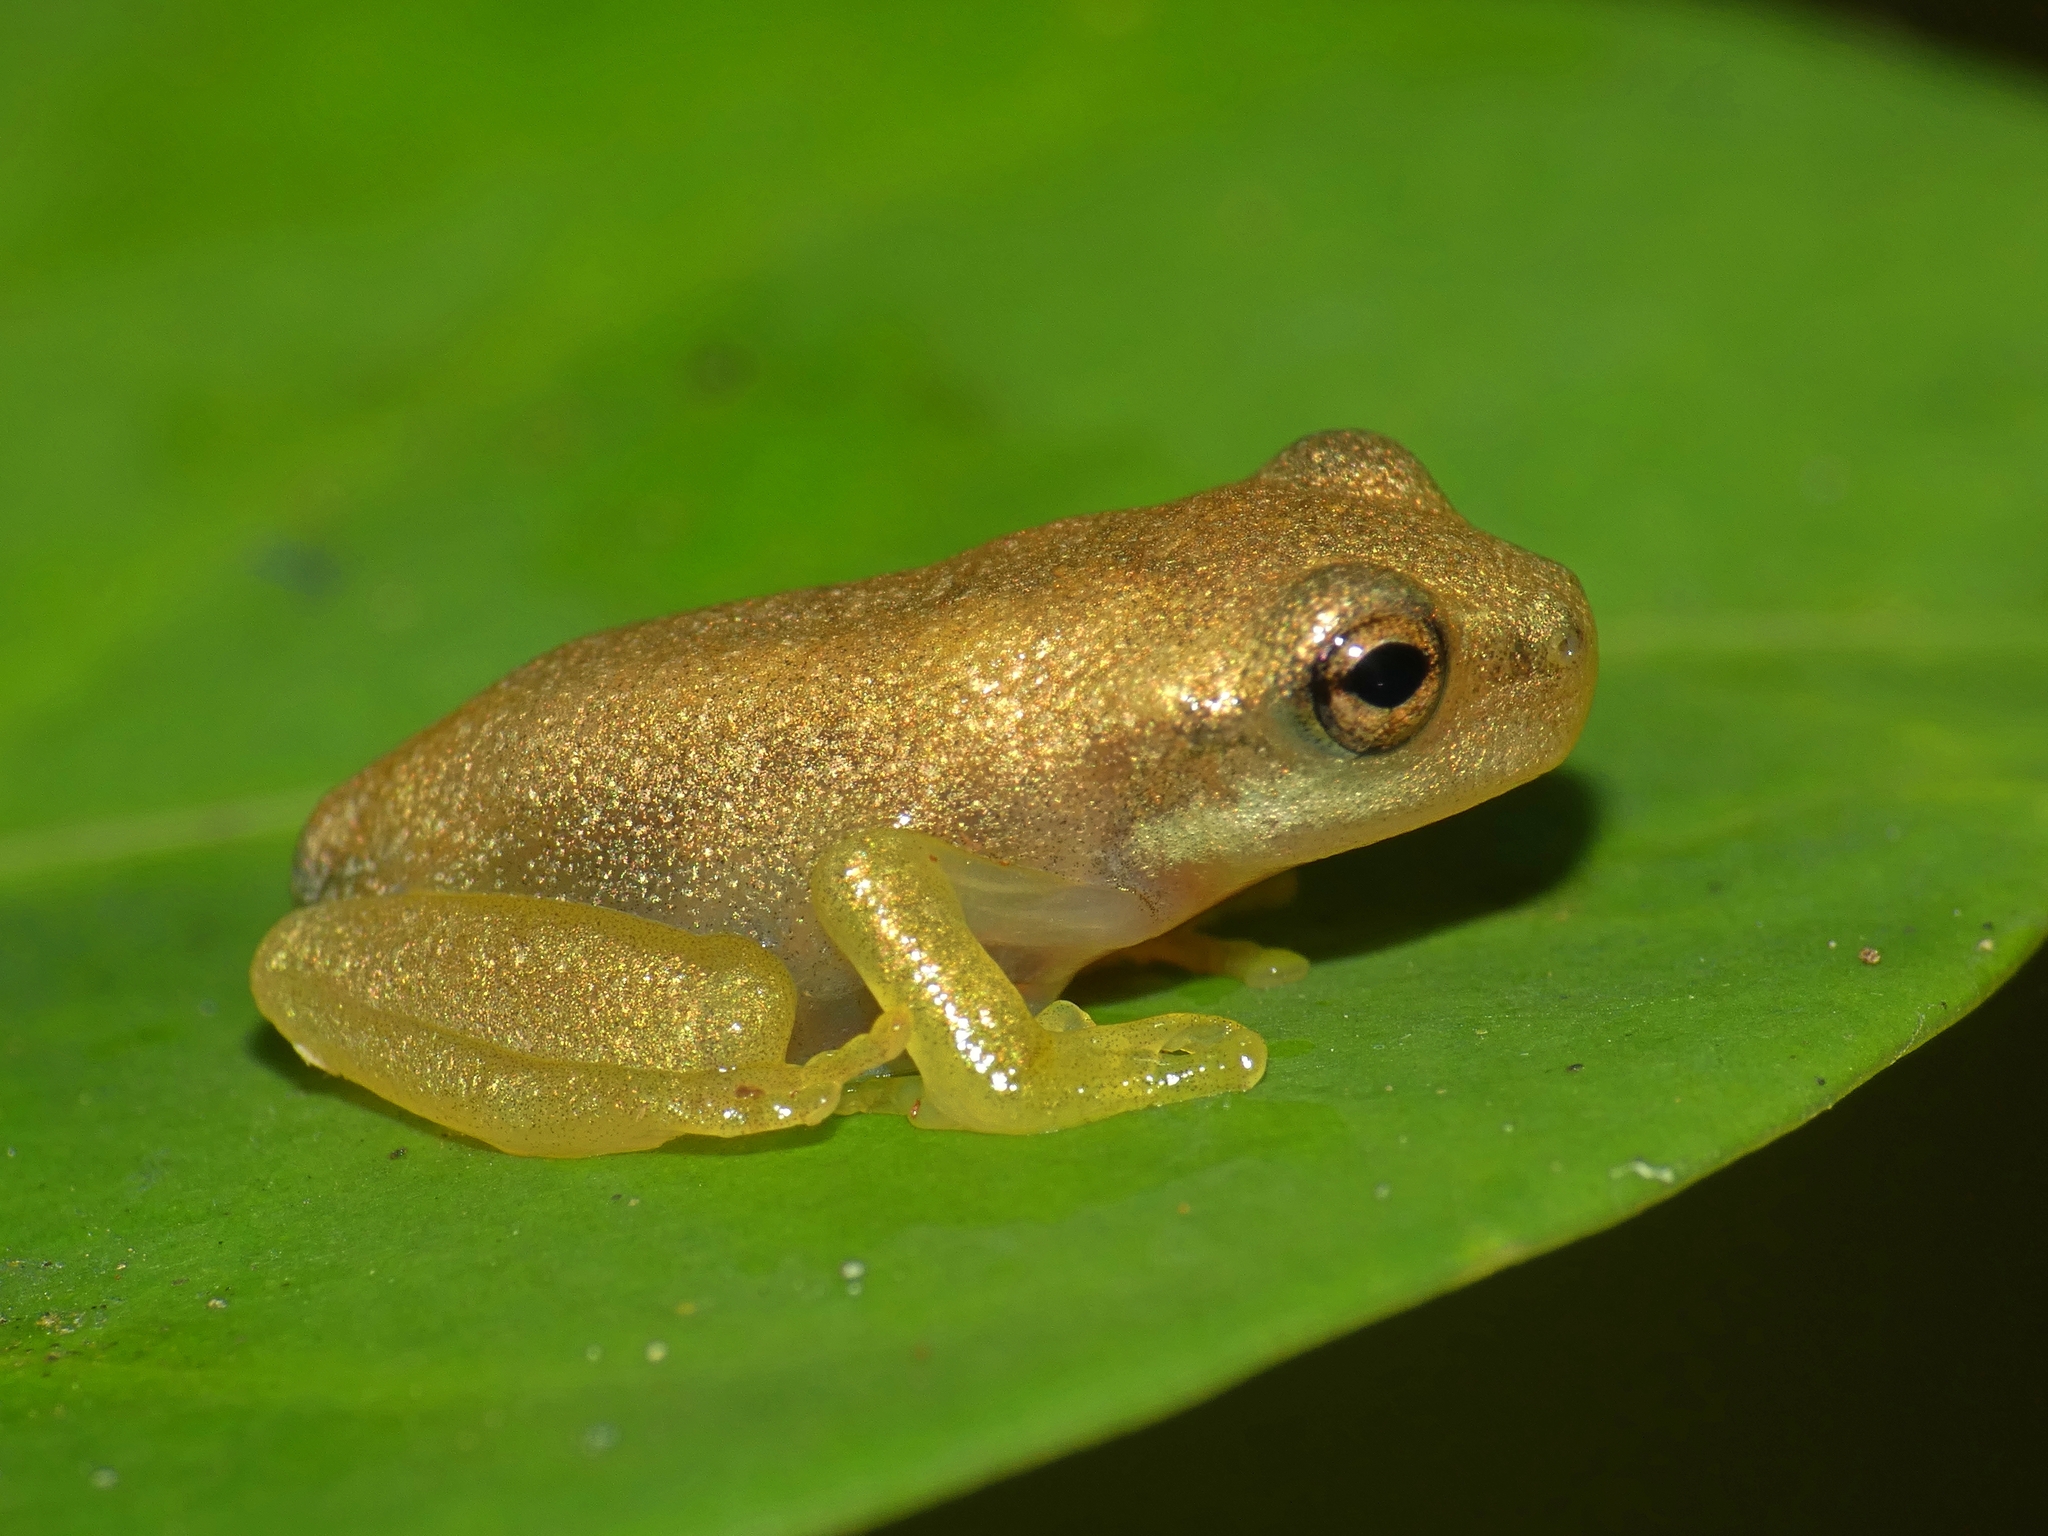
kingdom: Animalia
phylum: Chordata
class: Amphibia
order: Anura
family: Pelodryadidae
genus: Ranoidea
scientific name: Ranoidea gracilenta
